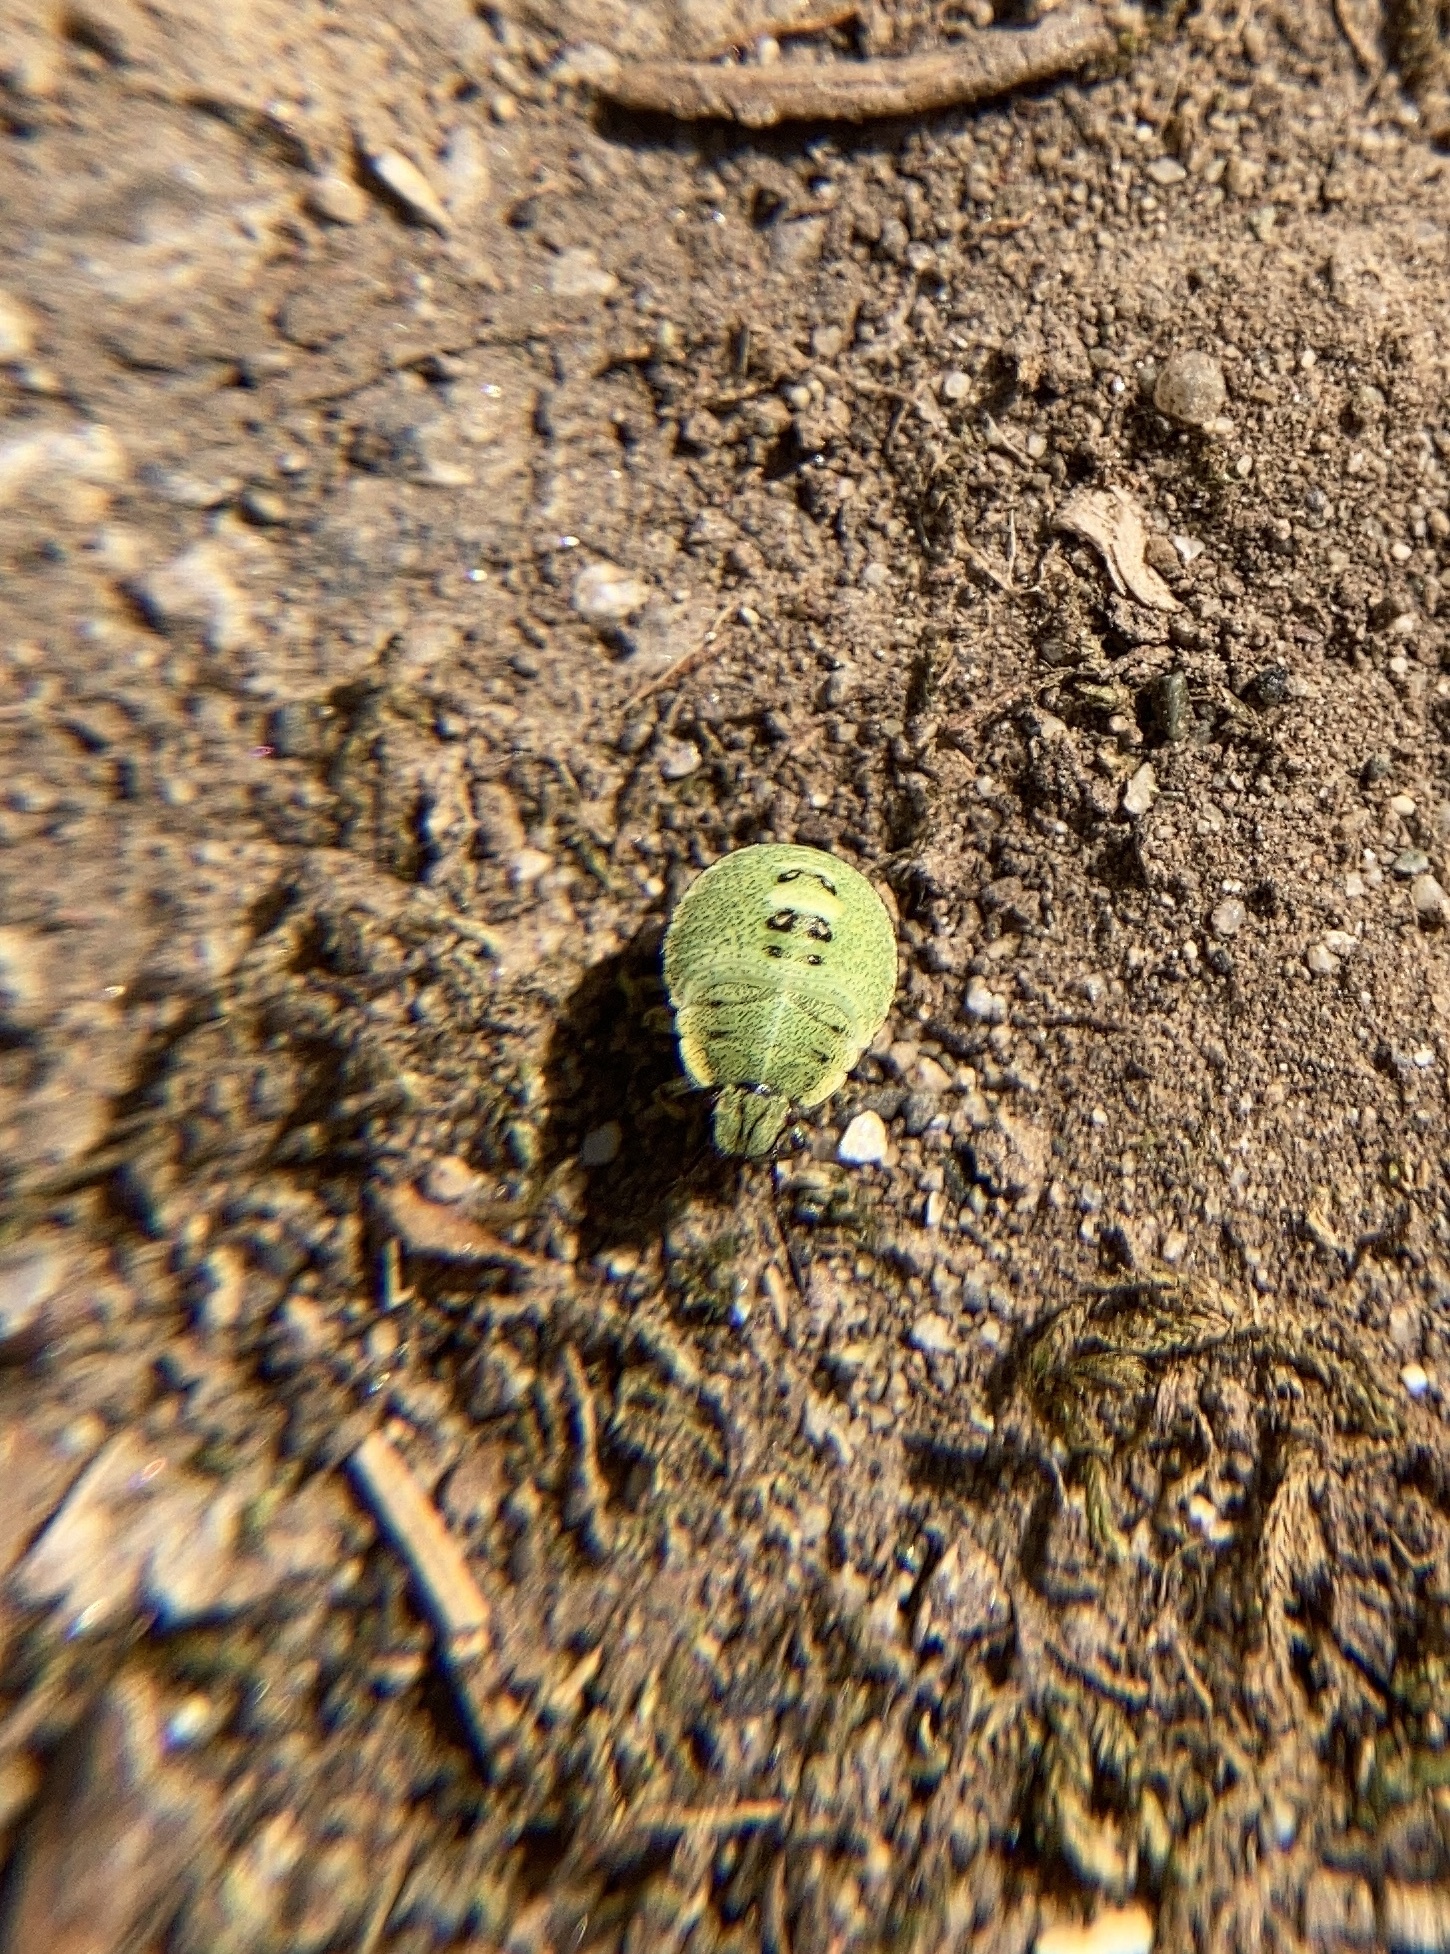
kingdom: Animalia
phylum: Arthropoda
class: Insecta
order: Hemiptera
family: Pentatomidae
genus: Palomena
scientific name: Palomena prasina
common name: Green shieldbug
